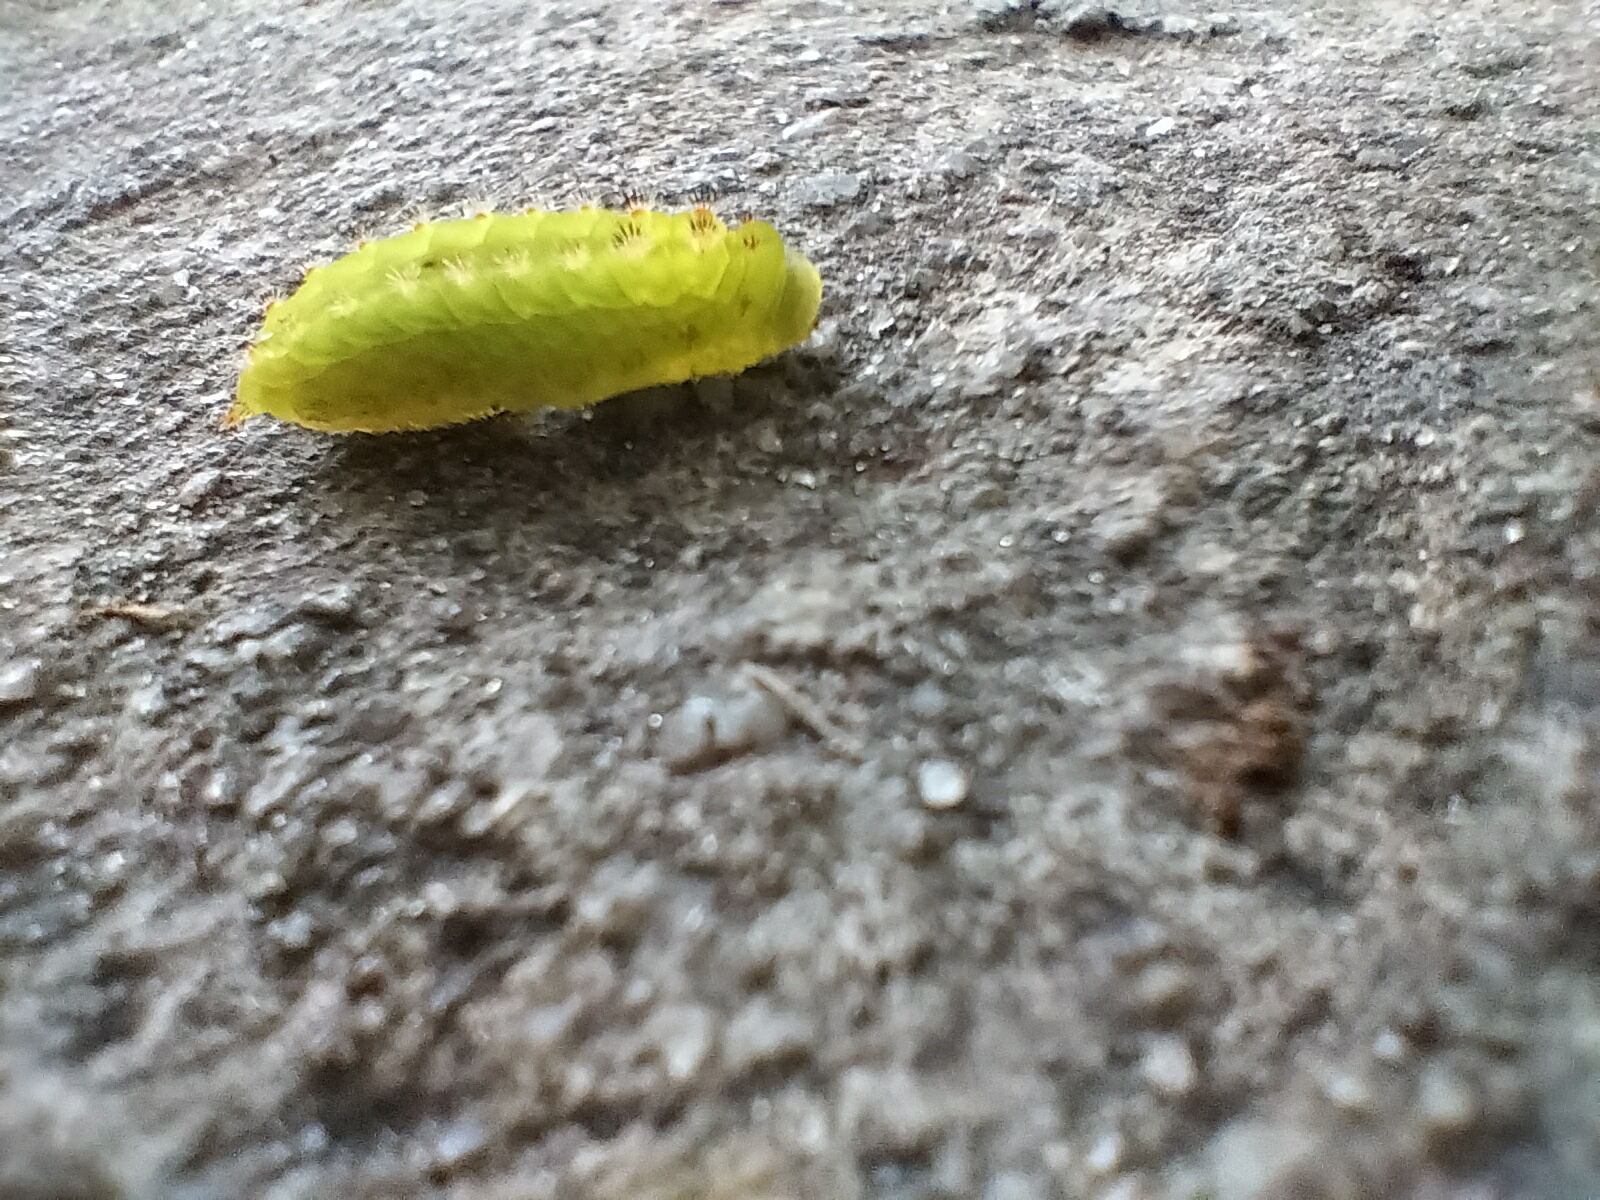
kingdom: Animalia
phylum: Arthropoda
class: Insecta
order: Lepidoptera
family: Limacodidae
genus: Natada
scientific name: Natada nasoni
